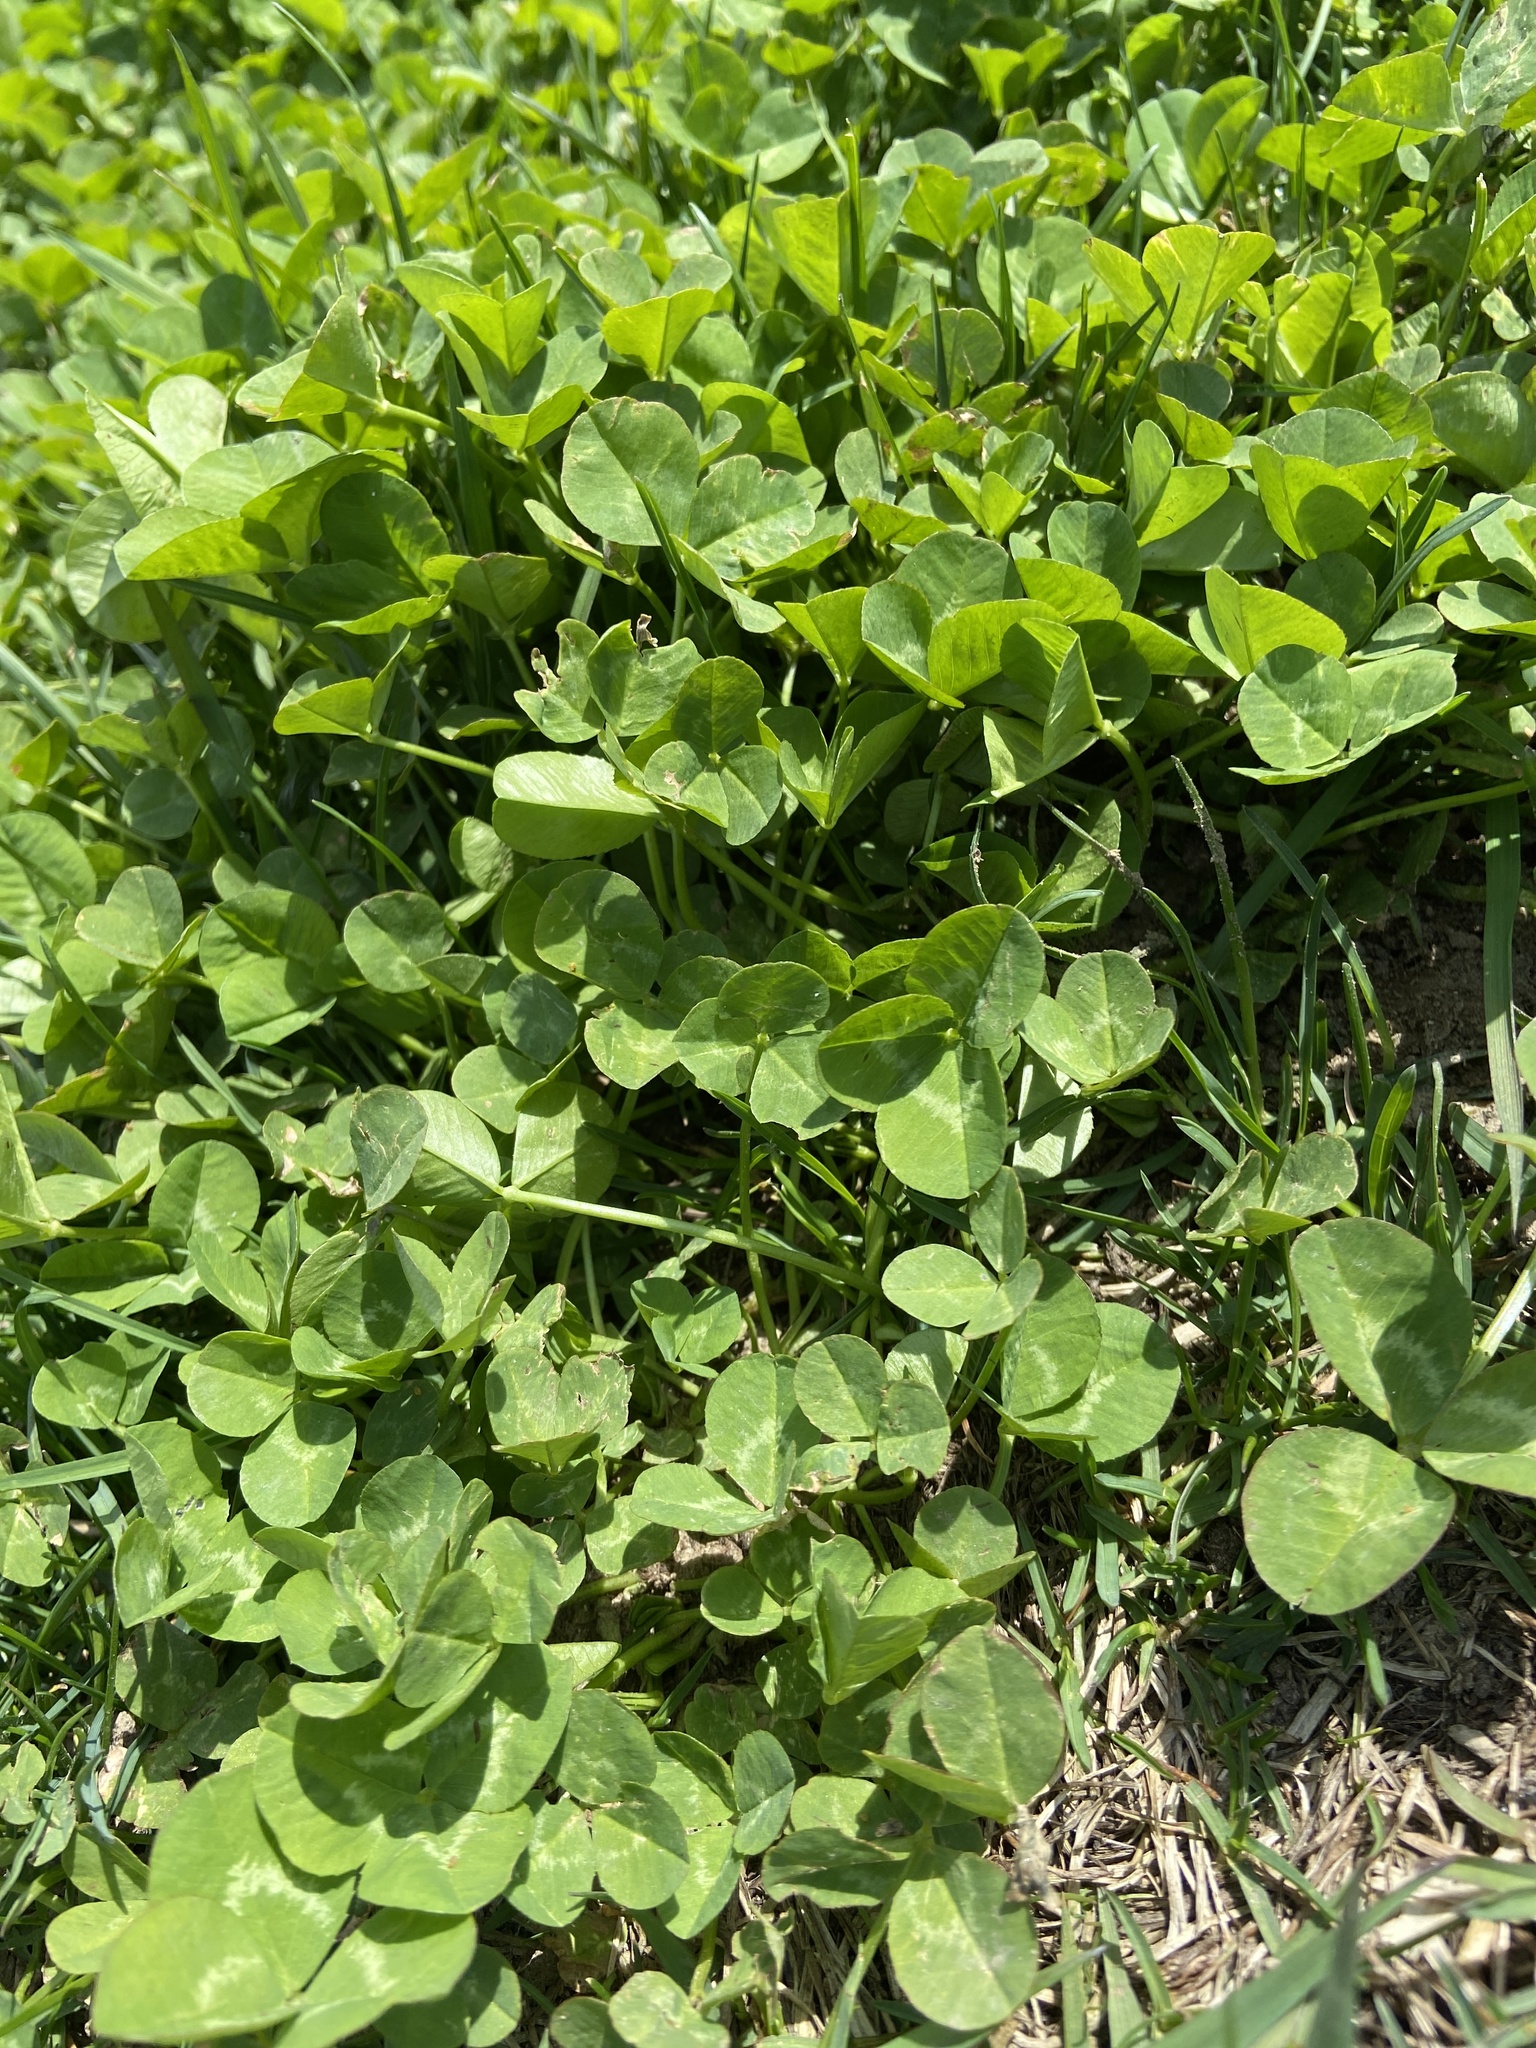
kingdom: Plantae
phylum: Tracheophyta
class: Magnoliopsida
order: Fabales
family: Fabaceae
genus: Trifolium
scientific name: Trifolium repens
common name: White clover
